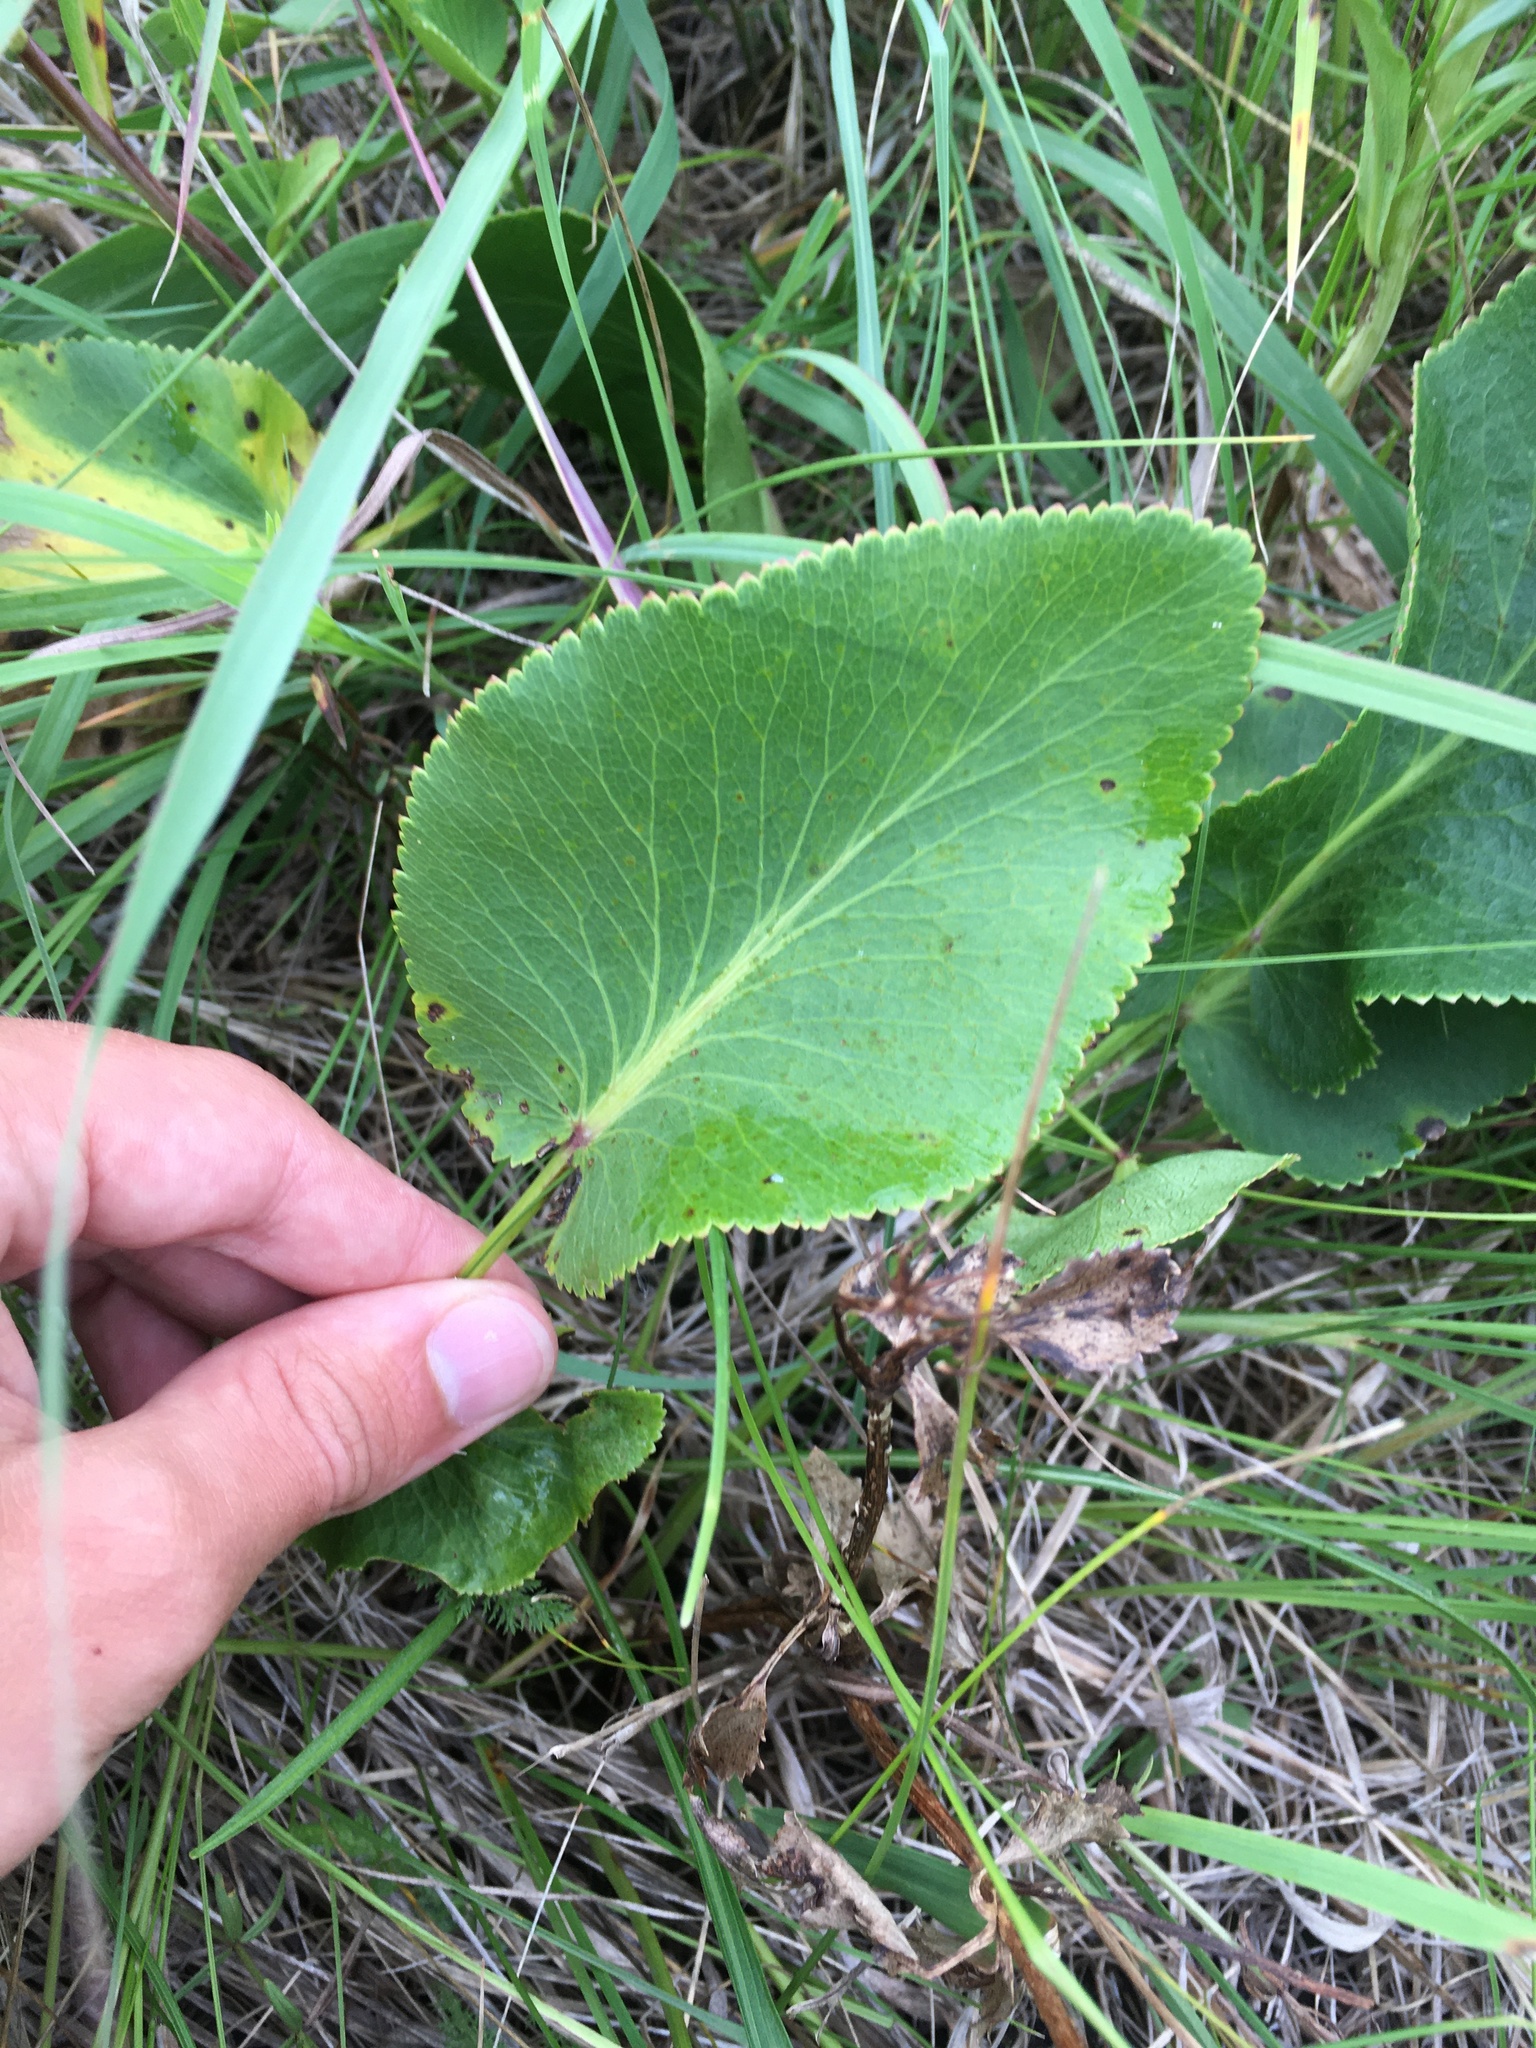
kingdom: Plantae
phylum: Tracheophyta
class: Magnoliopsida
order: Apiales
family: Apiaceae
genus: Zizia
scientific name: Zizia aptera
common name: Heart-leaved alexanders
